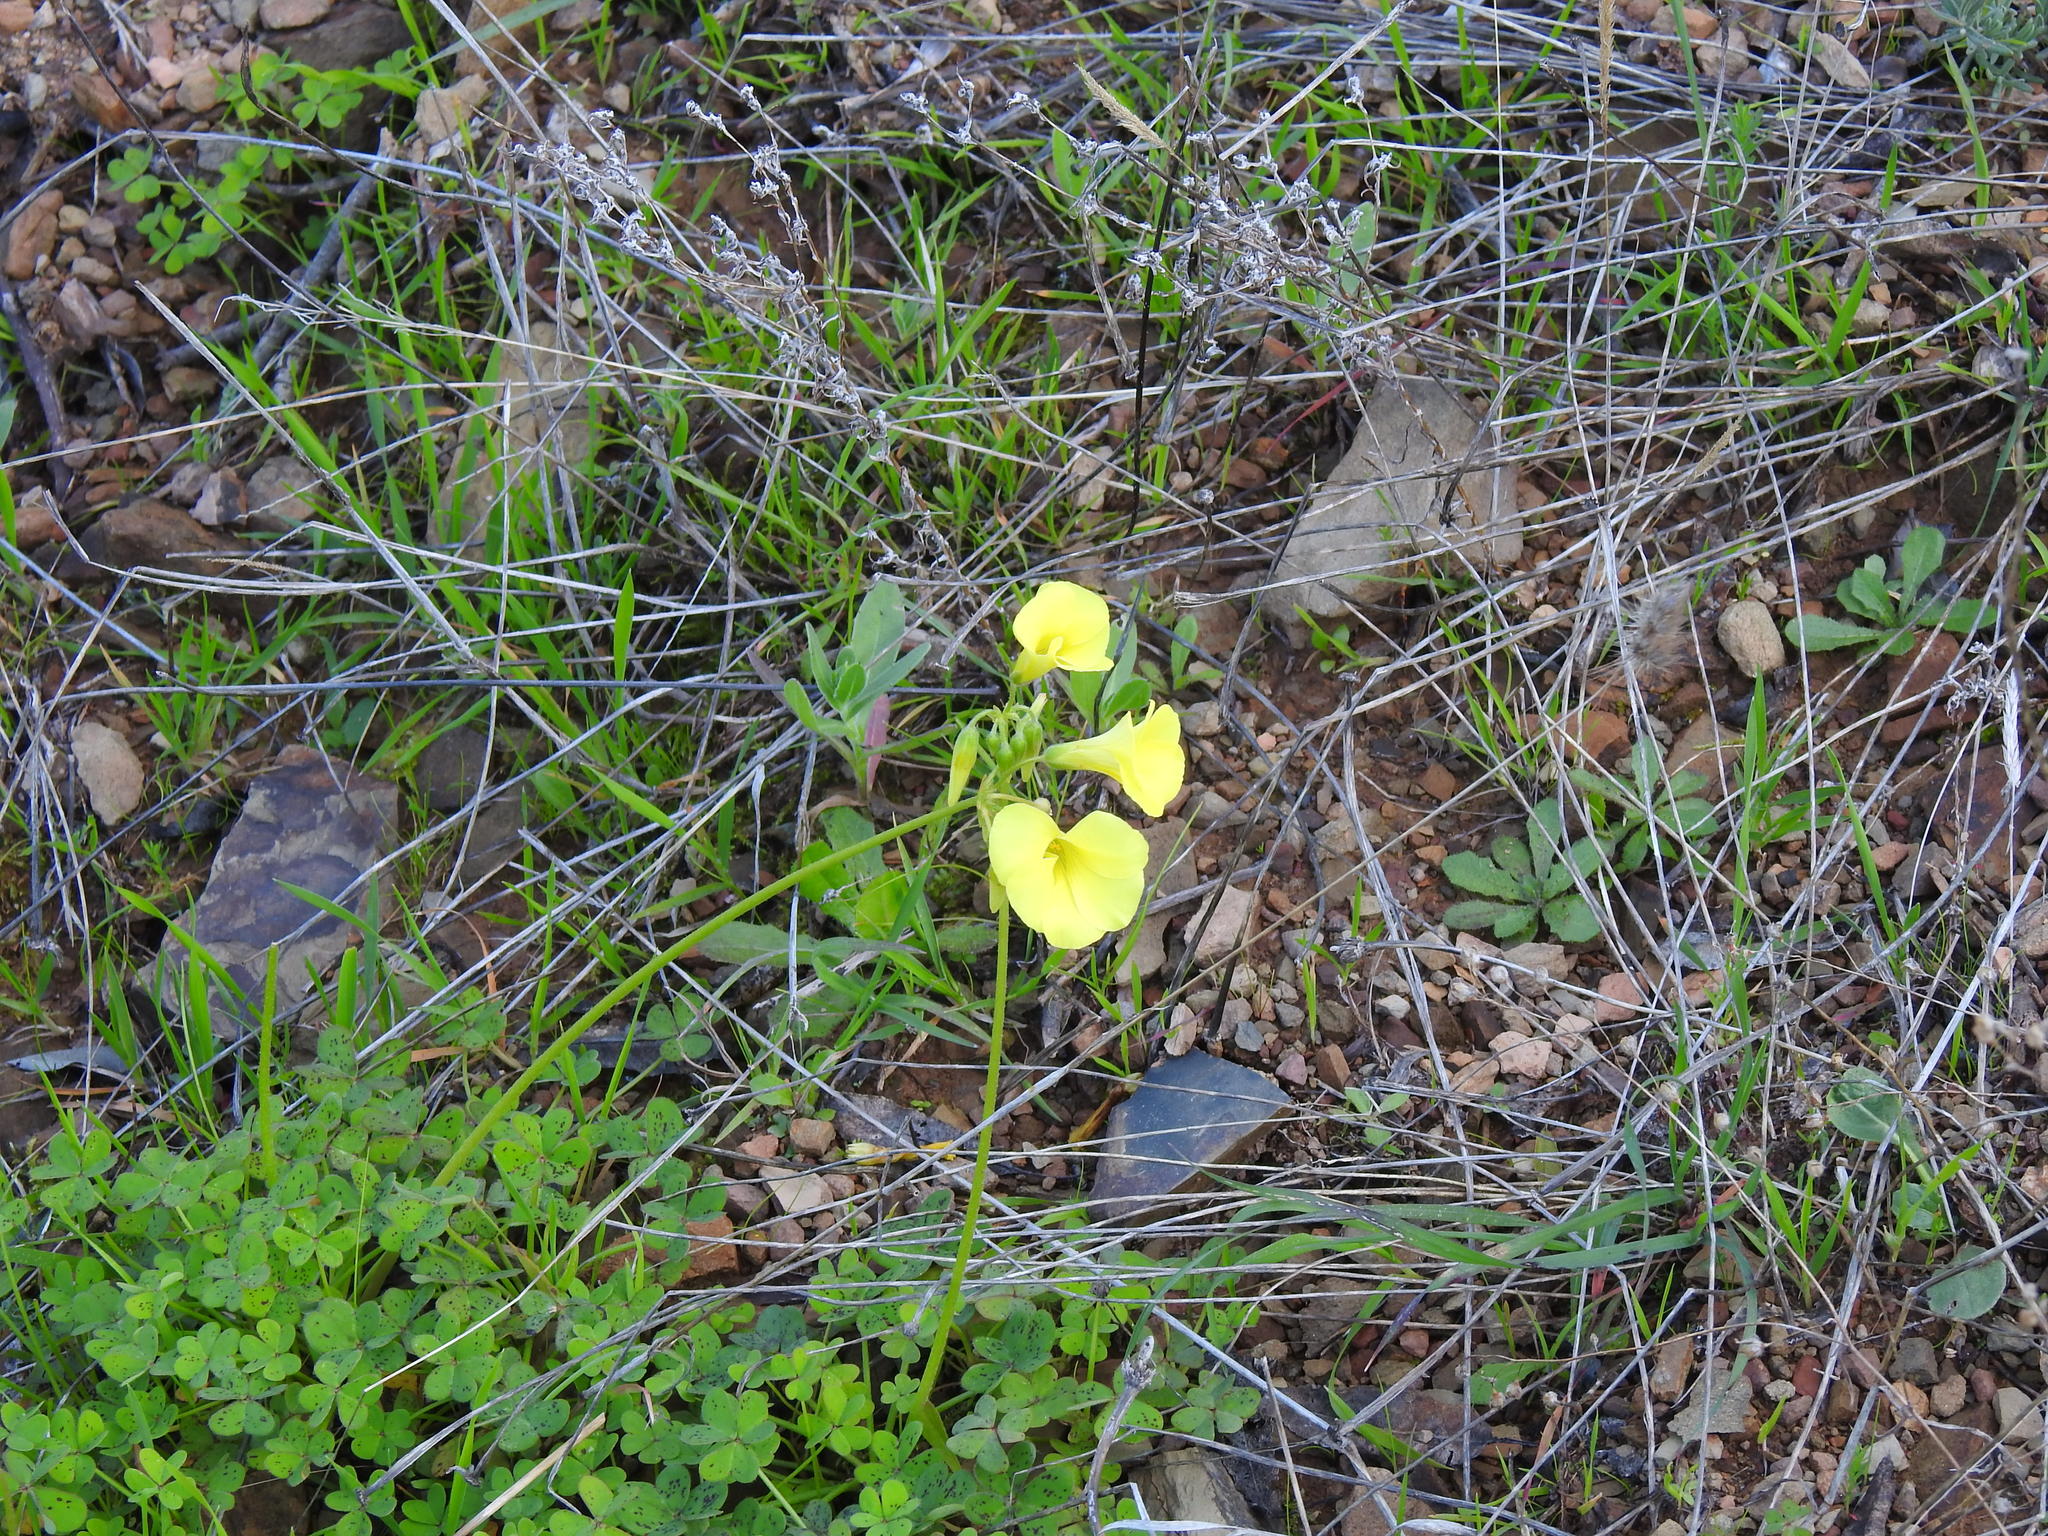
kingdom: Plantae
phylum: Tracheophyta
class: Magnoliopsida
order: Oxalidales
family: Oxalidaceae
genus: Oxalis
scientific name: Oxalis pes-caprae
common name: Bermuda-buttercup
